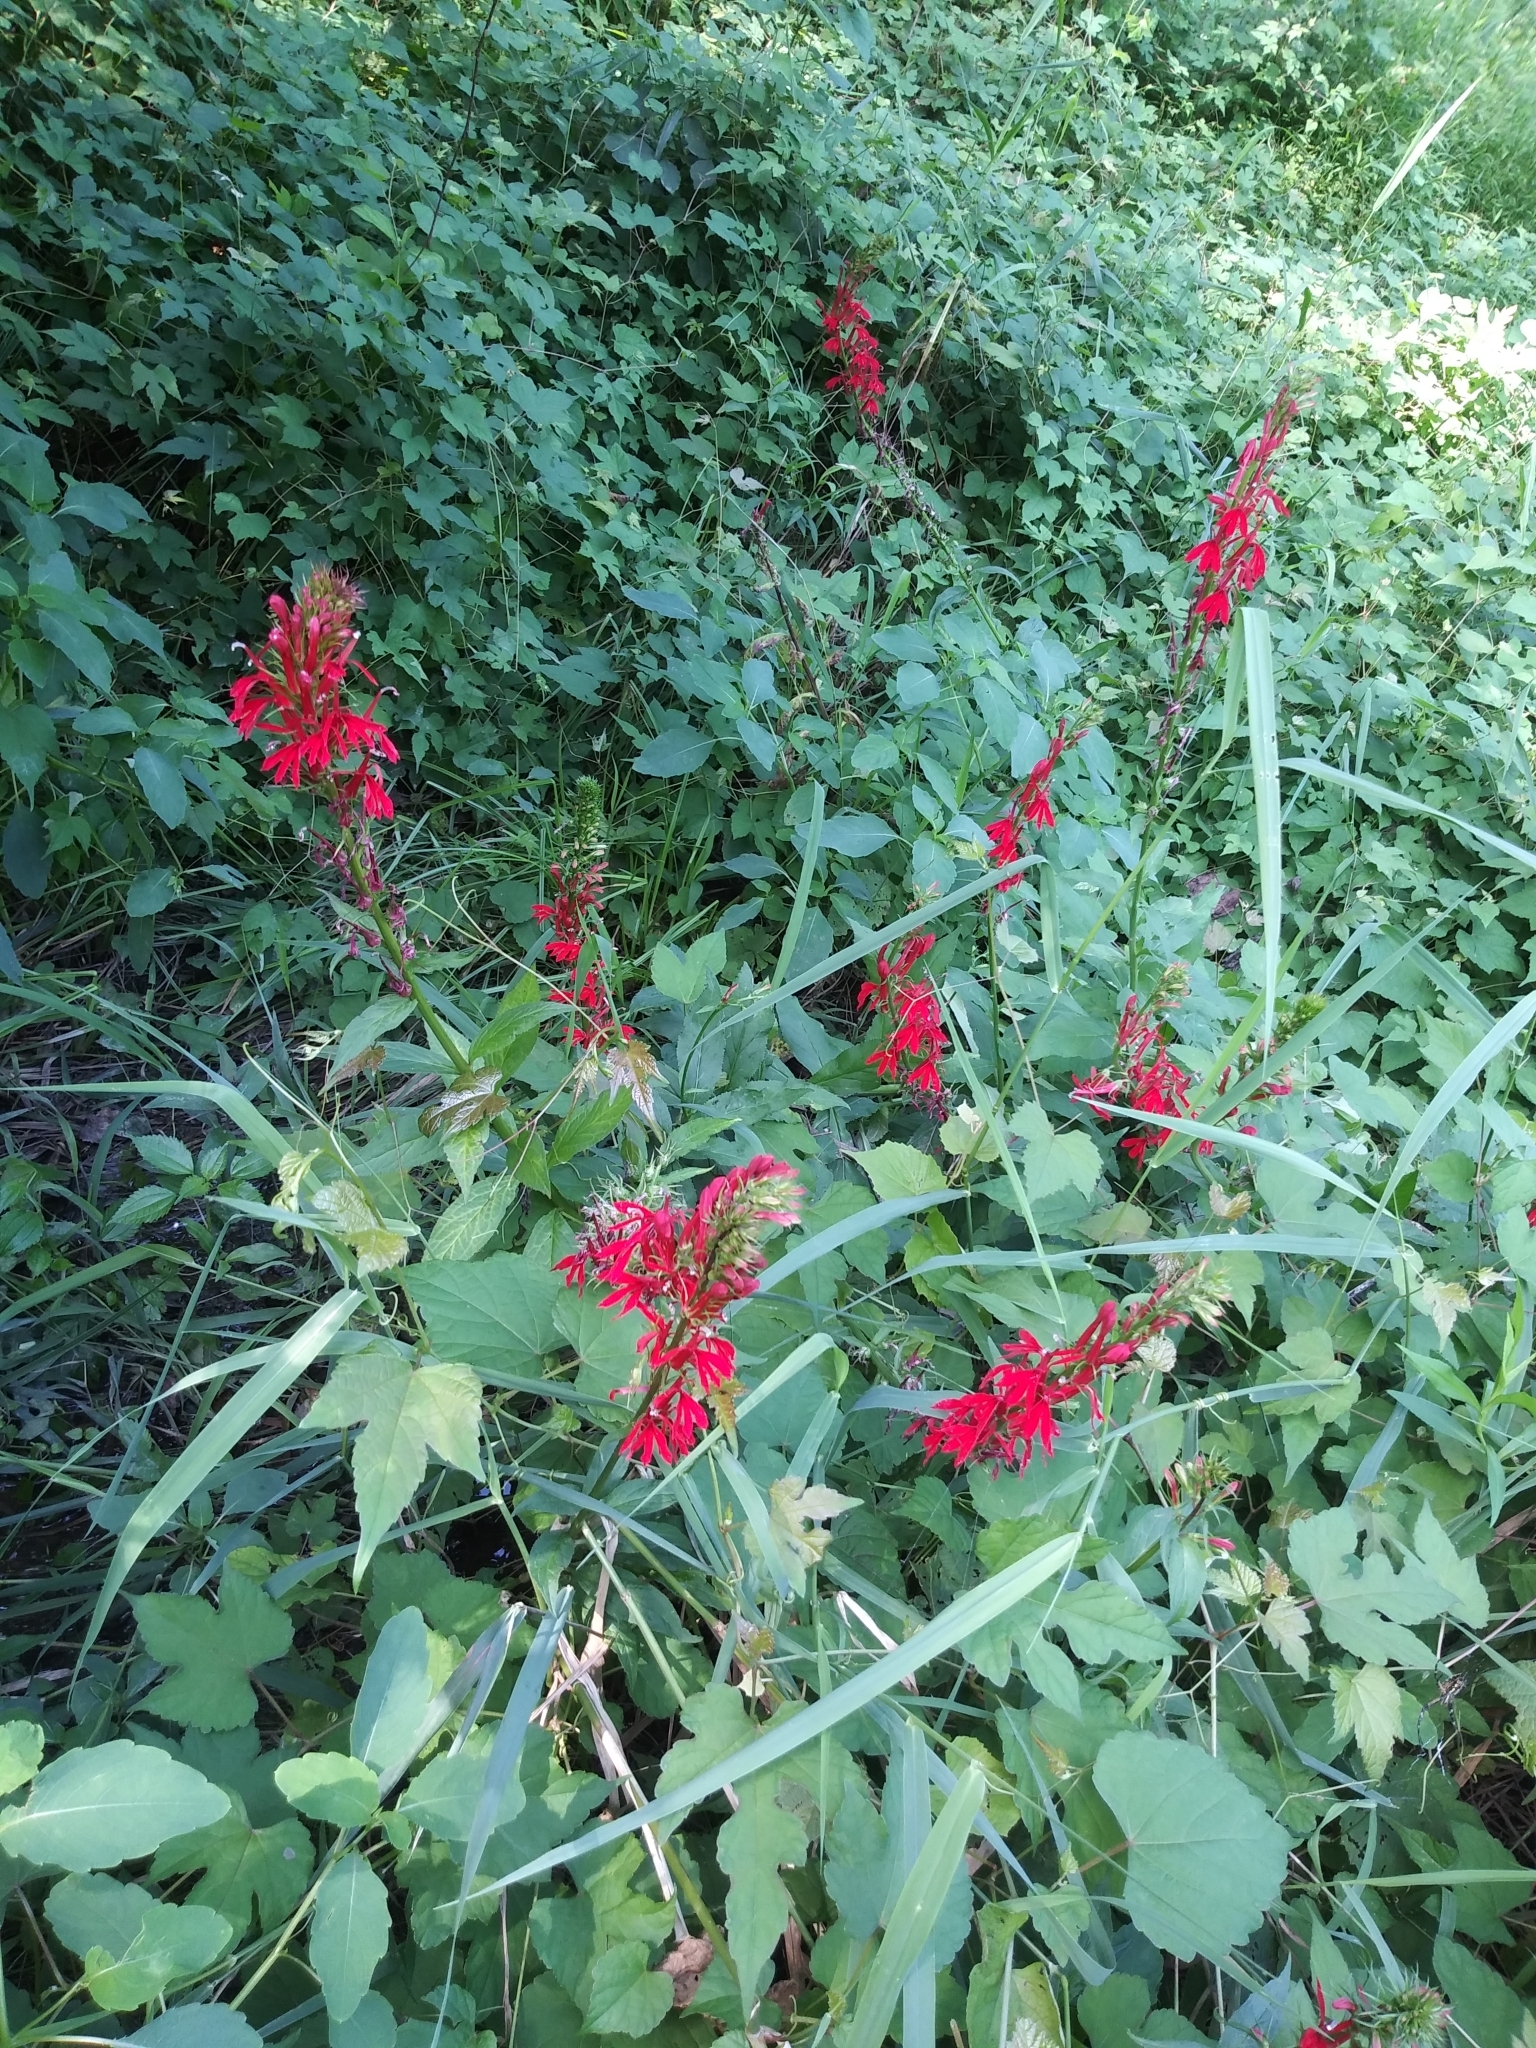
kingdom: Plantae
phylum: Tracheophyta
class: Magnoliopsida
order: Asterales
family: Campanulaceae
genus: Lobelia
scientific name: Lobelia cardinalis
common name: Cardinal flower
